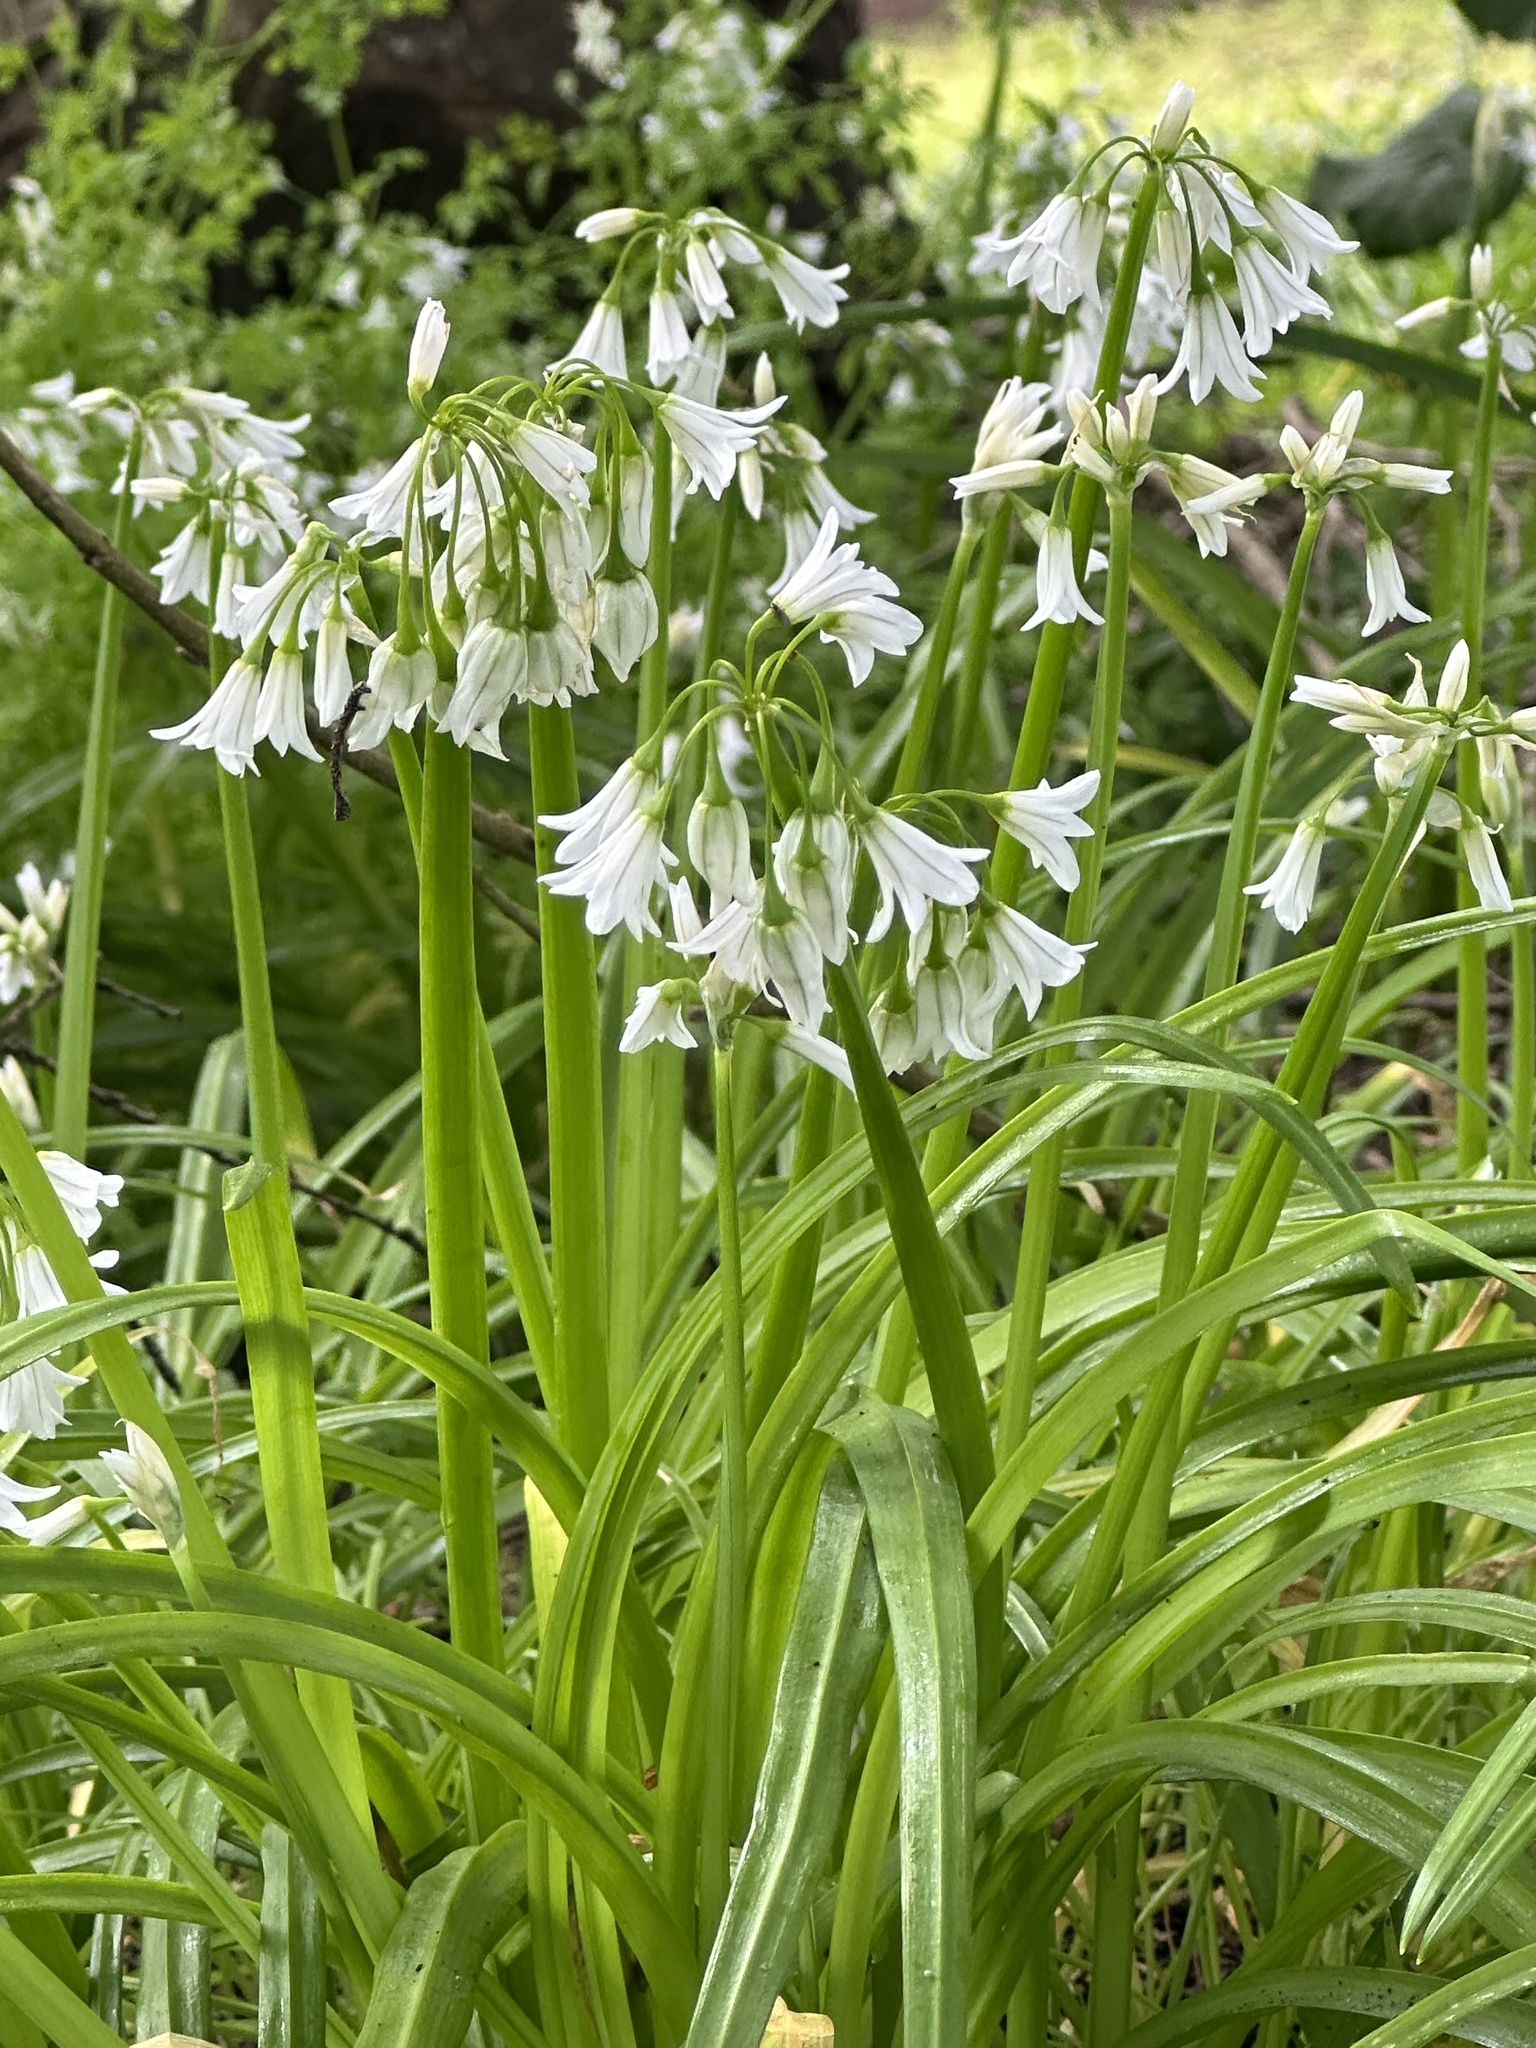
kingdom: Plantae
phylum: Tracheophyta
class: Liliopsida
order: Asparagales
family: Amaryllidaceae
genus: Allium
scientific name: Allium triquetrum
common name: Three-cornered garlic
